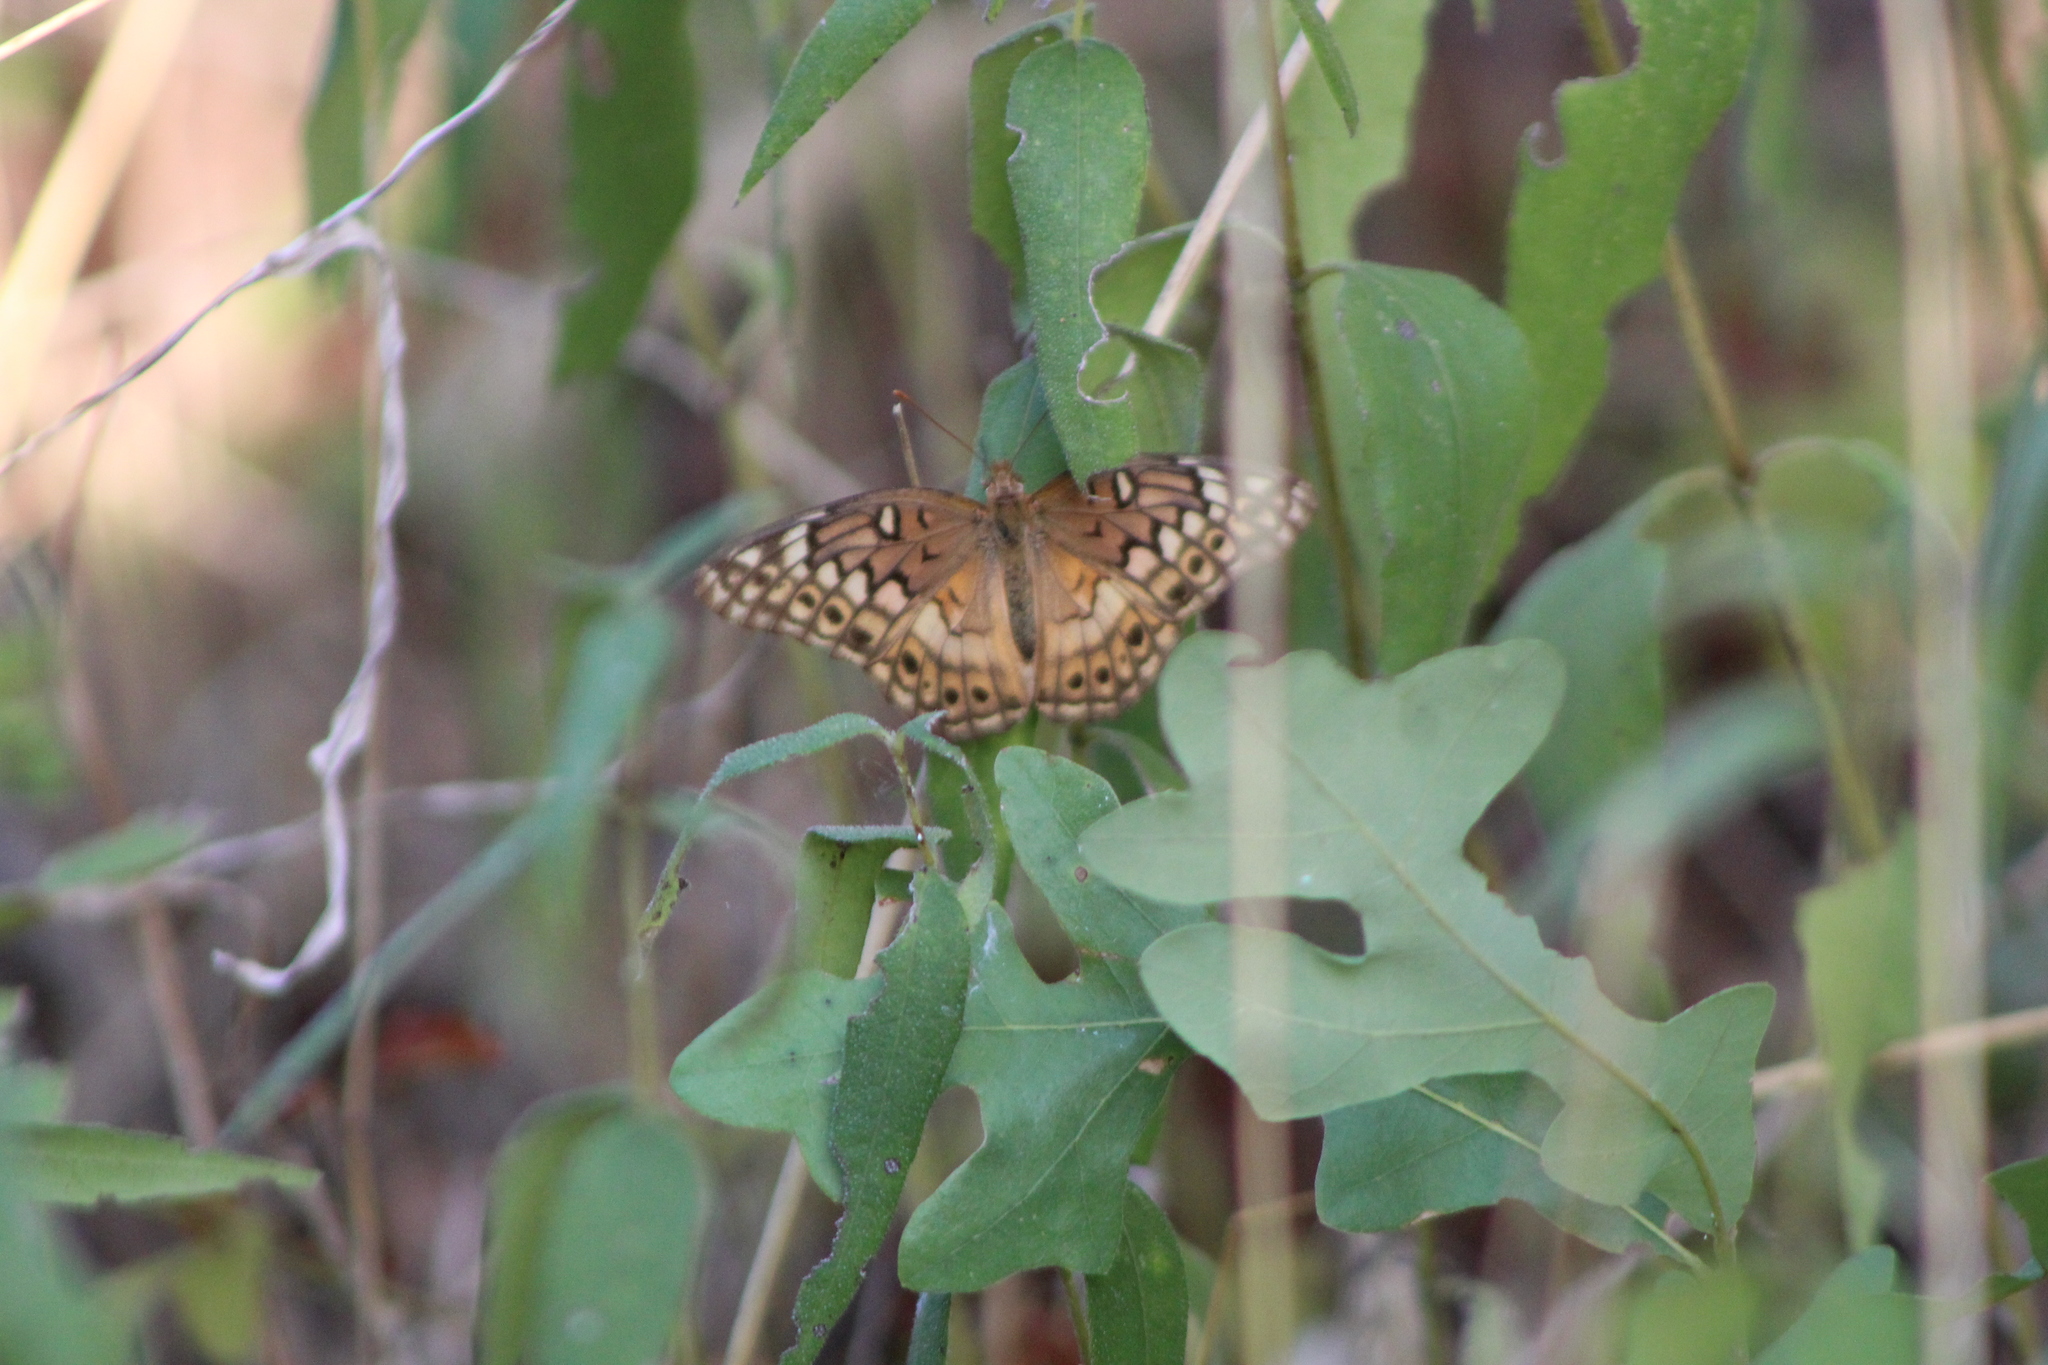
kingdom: Animalia
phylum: Arthropoda
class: Insecta
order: Lepidoptera
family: Nymphalidae
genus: Euptoieta
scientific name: Euptoieta claudia
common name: Variegated fritillary
